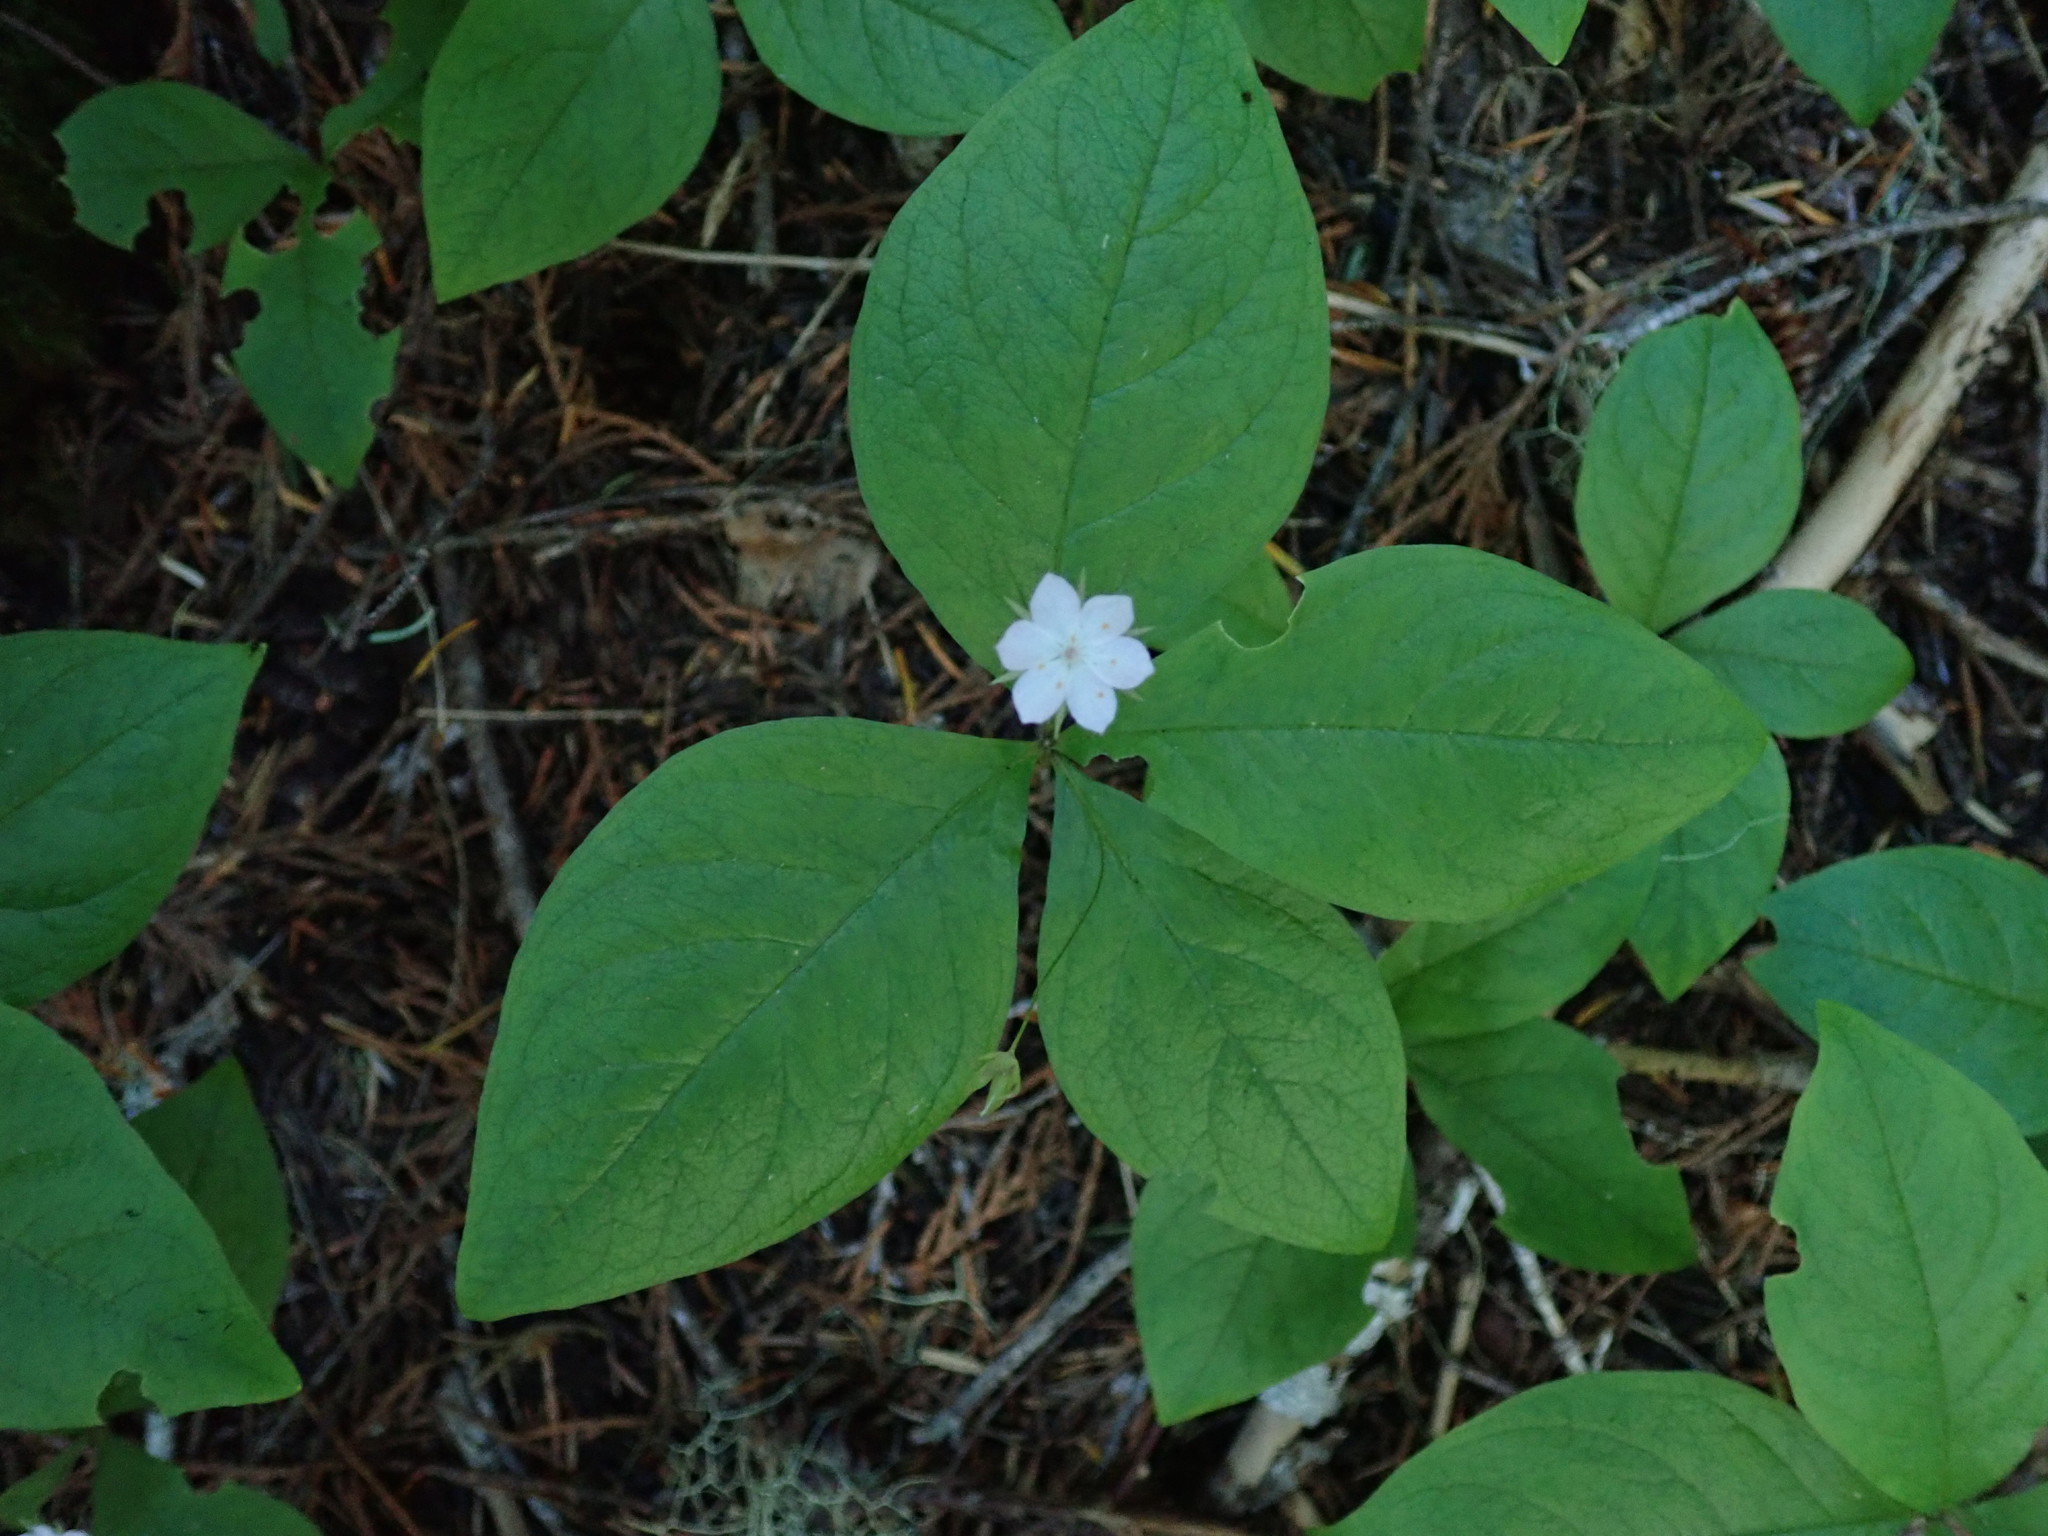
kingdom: Plantae
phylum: Tracheophyta
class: Magnoliopsida
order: Ericales
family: Primulaceae
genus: Lysimachia
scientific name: Lysimachia latifolia
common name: Pacific starflower
